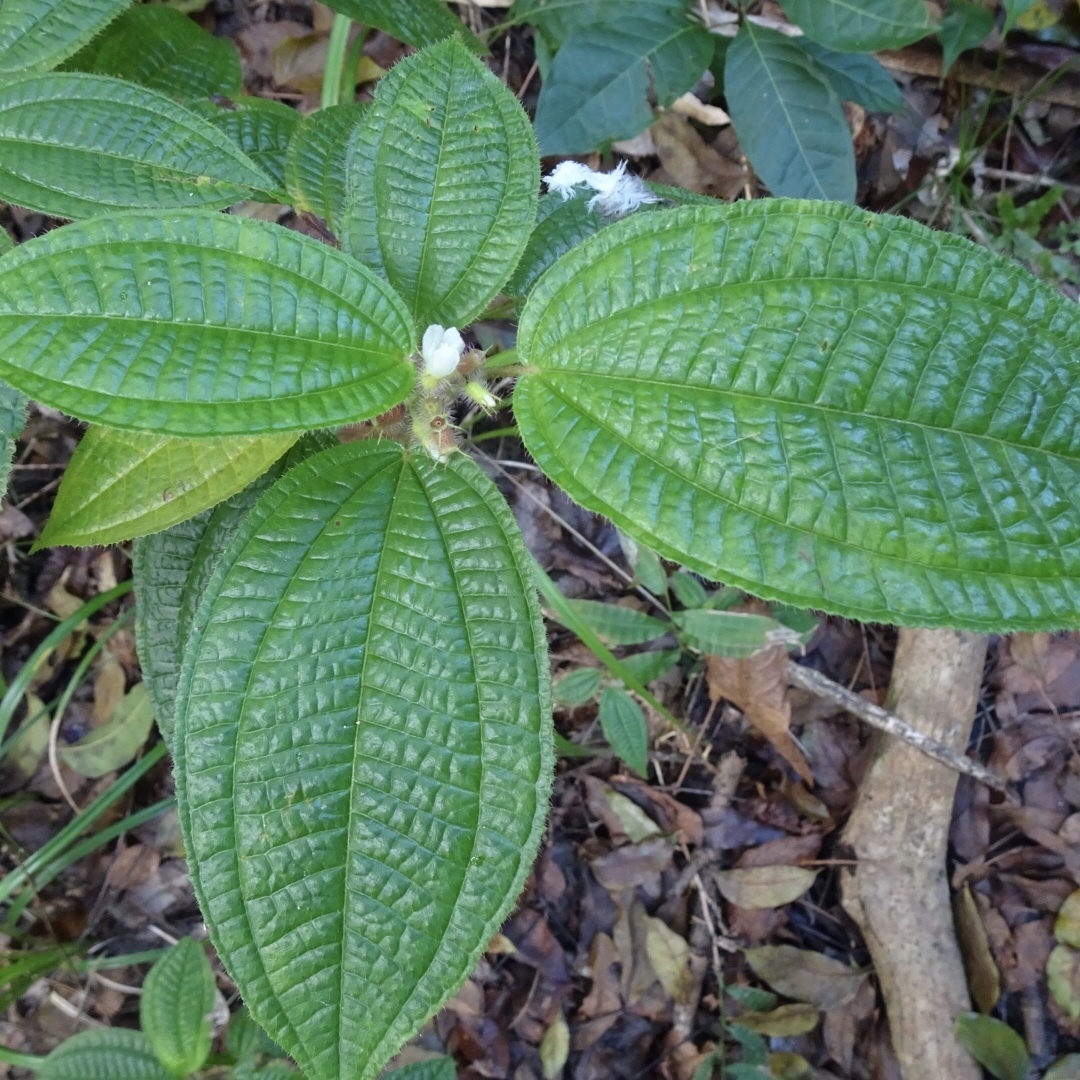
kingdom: Plantae
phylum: Tracheophyta
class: Magnoliopsida
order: Myrtales
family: Melastomataceae
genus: Miconia
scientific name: Miconia crenata
